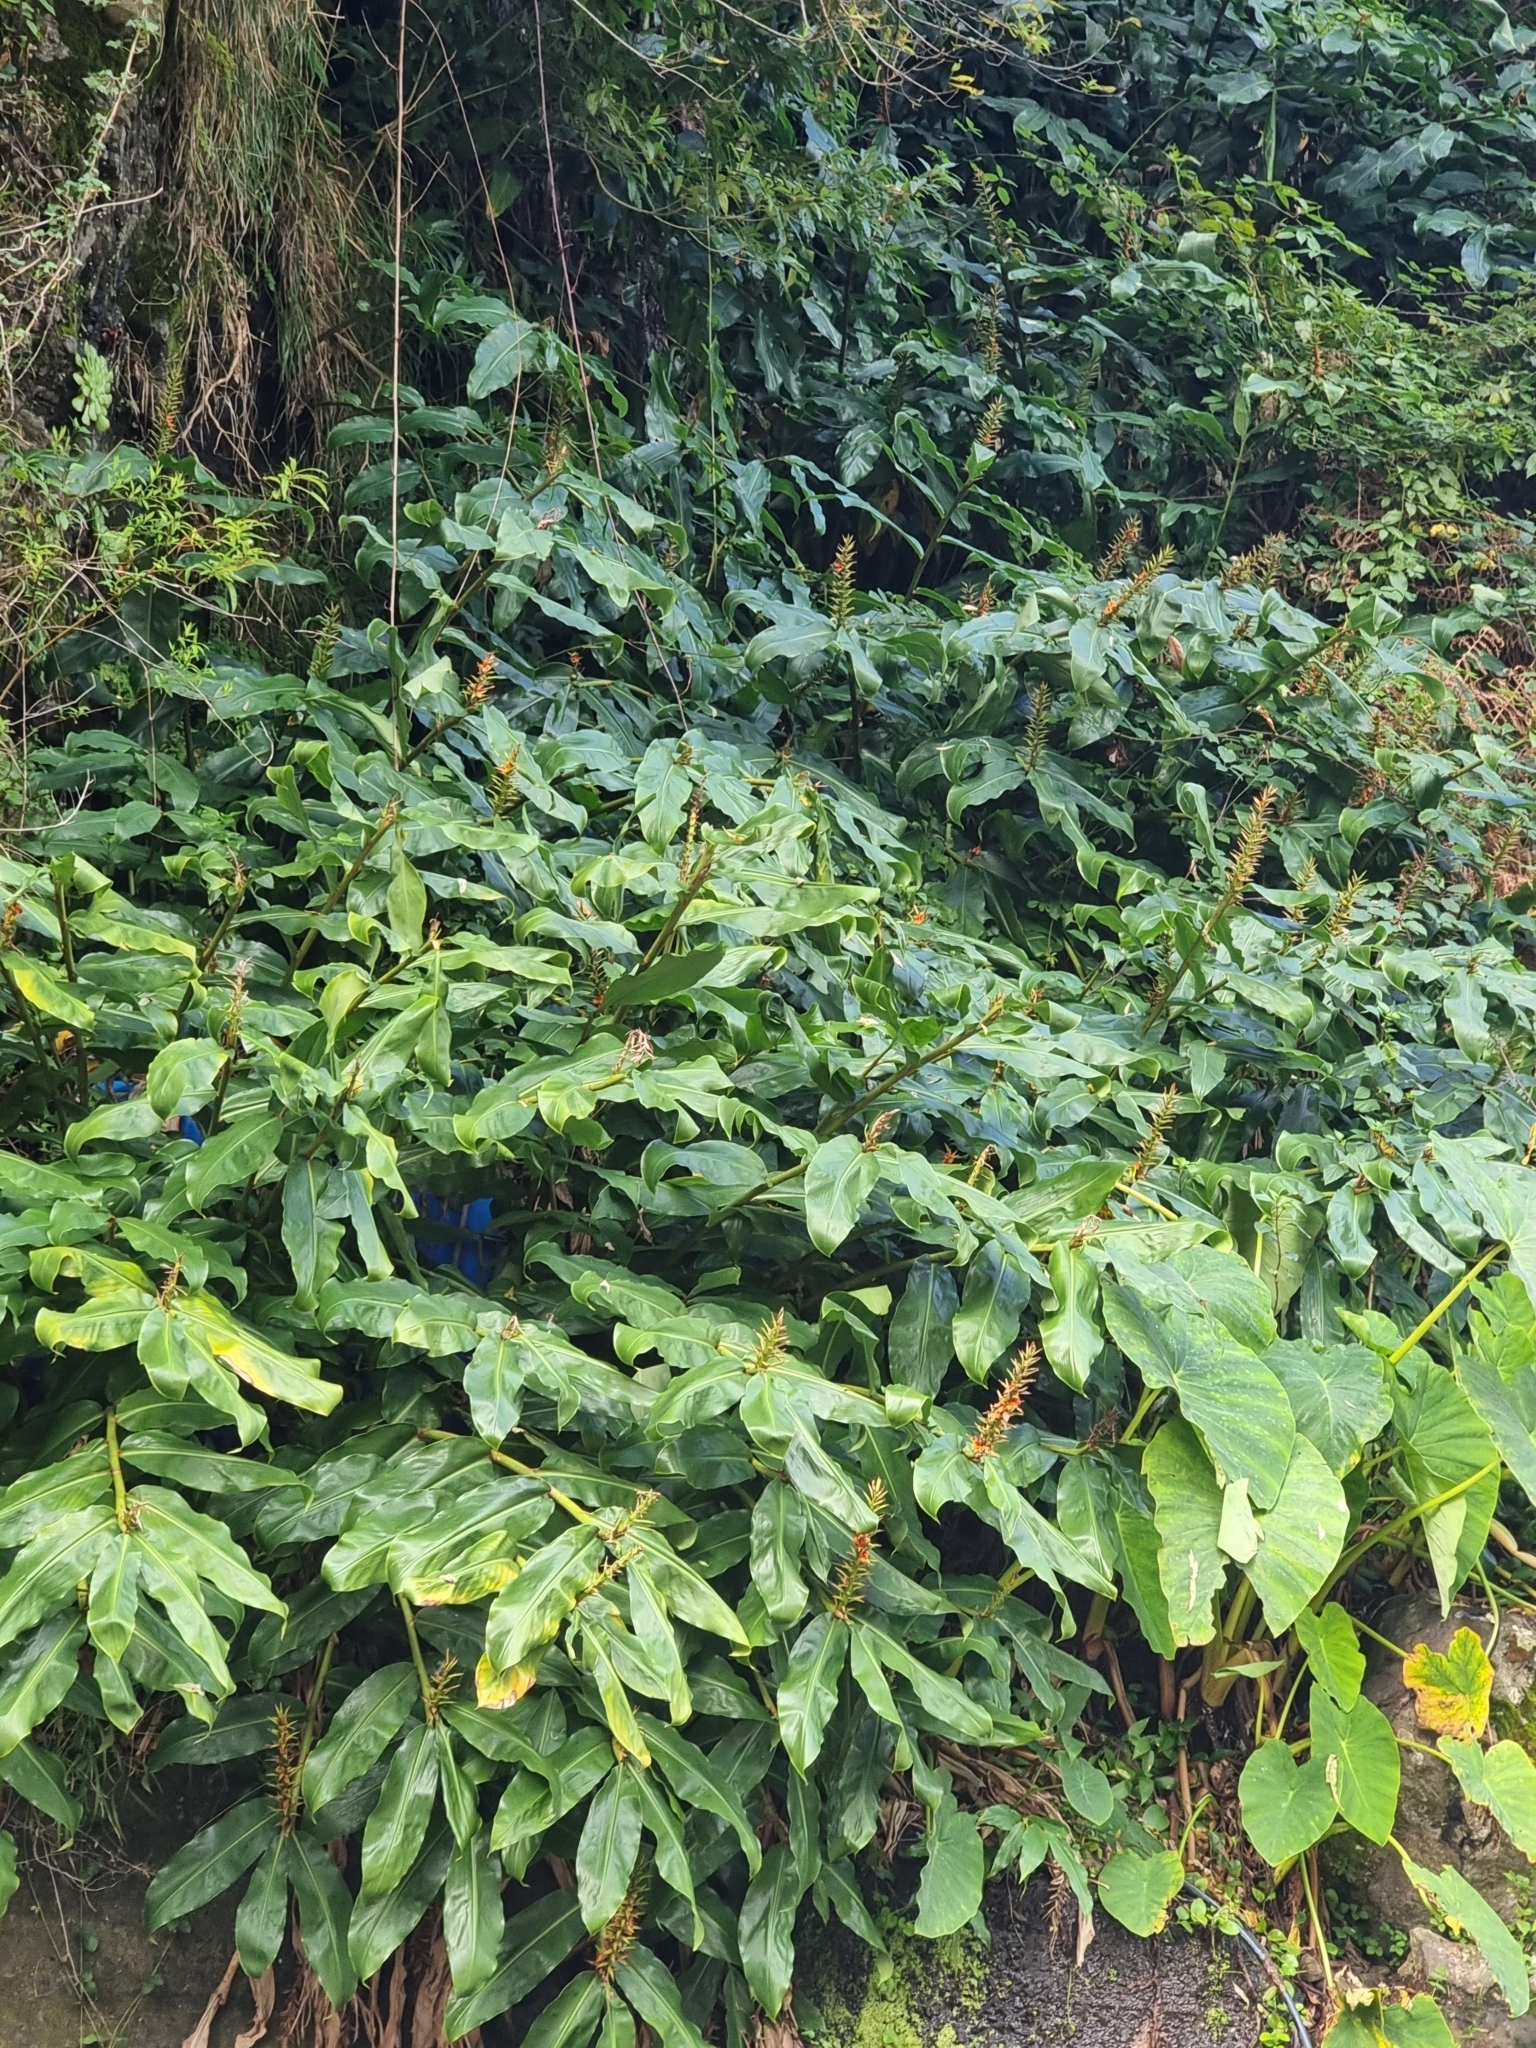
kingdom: Plantae
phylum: Tracheophyta
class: Liliopsida
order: Zingiberales
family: Zingiberaceae
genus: Hedychium
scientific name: Hedychium gardnerianum
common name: Himalayan ginger
